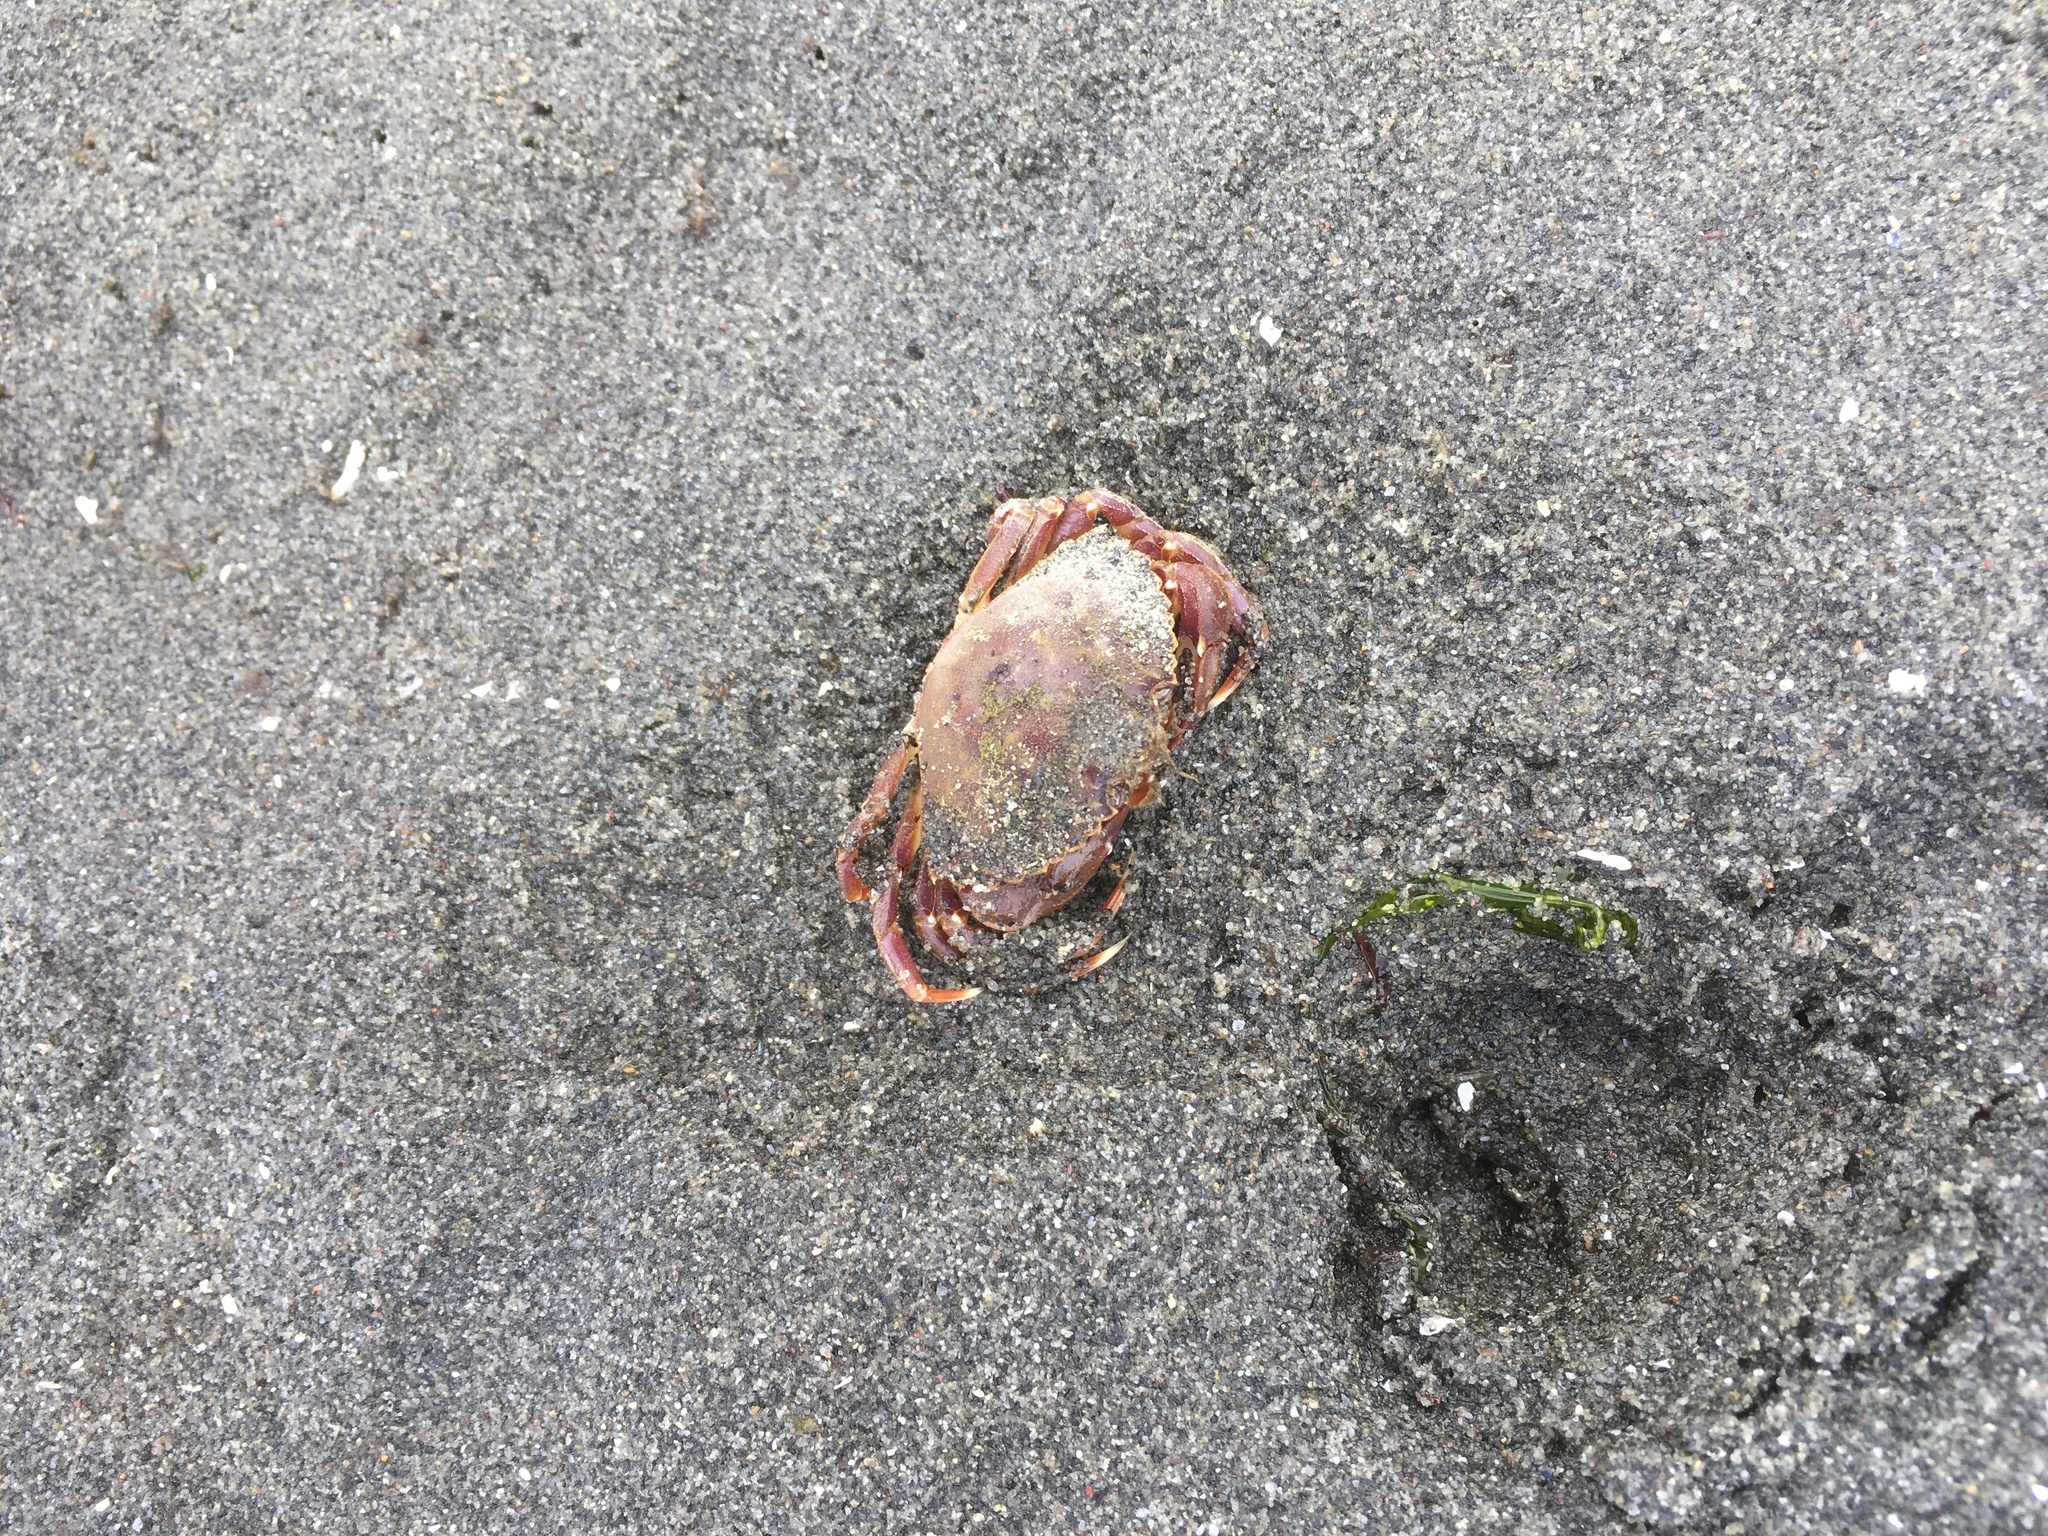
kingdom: Animalia
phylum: Arthropoda
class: Malacostraca
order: Decapoda
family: Cancridae
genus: Metacarcinus
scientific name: Metacarcinus gracilis
